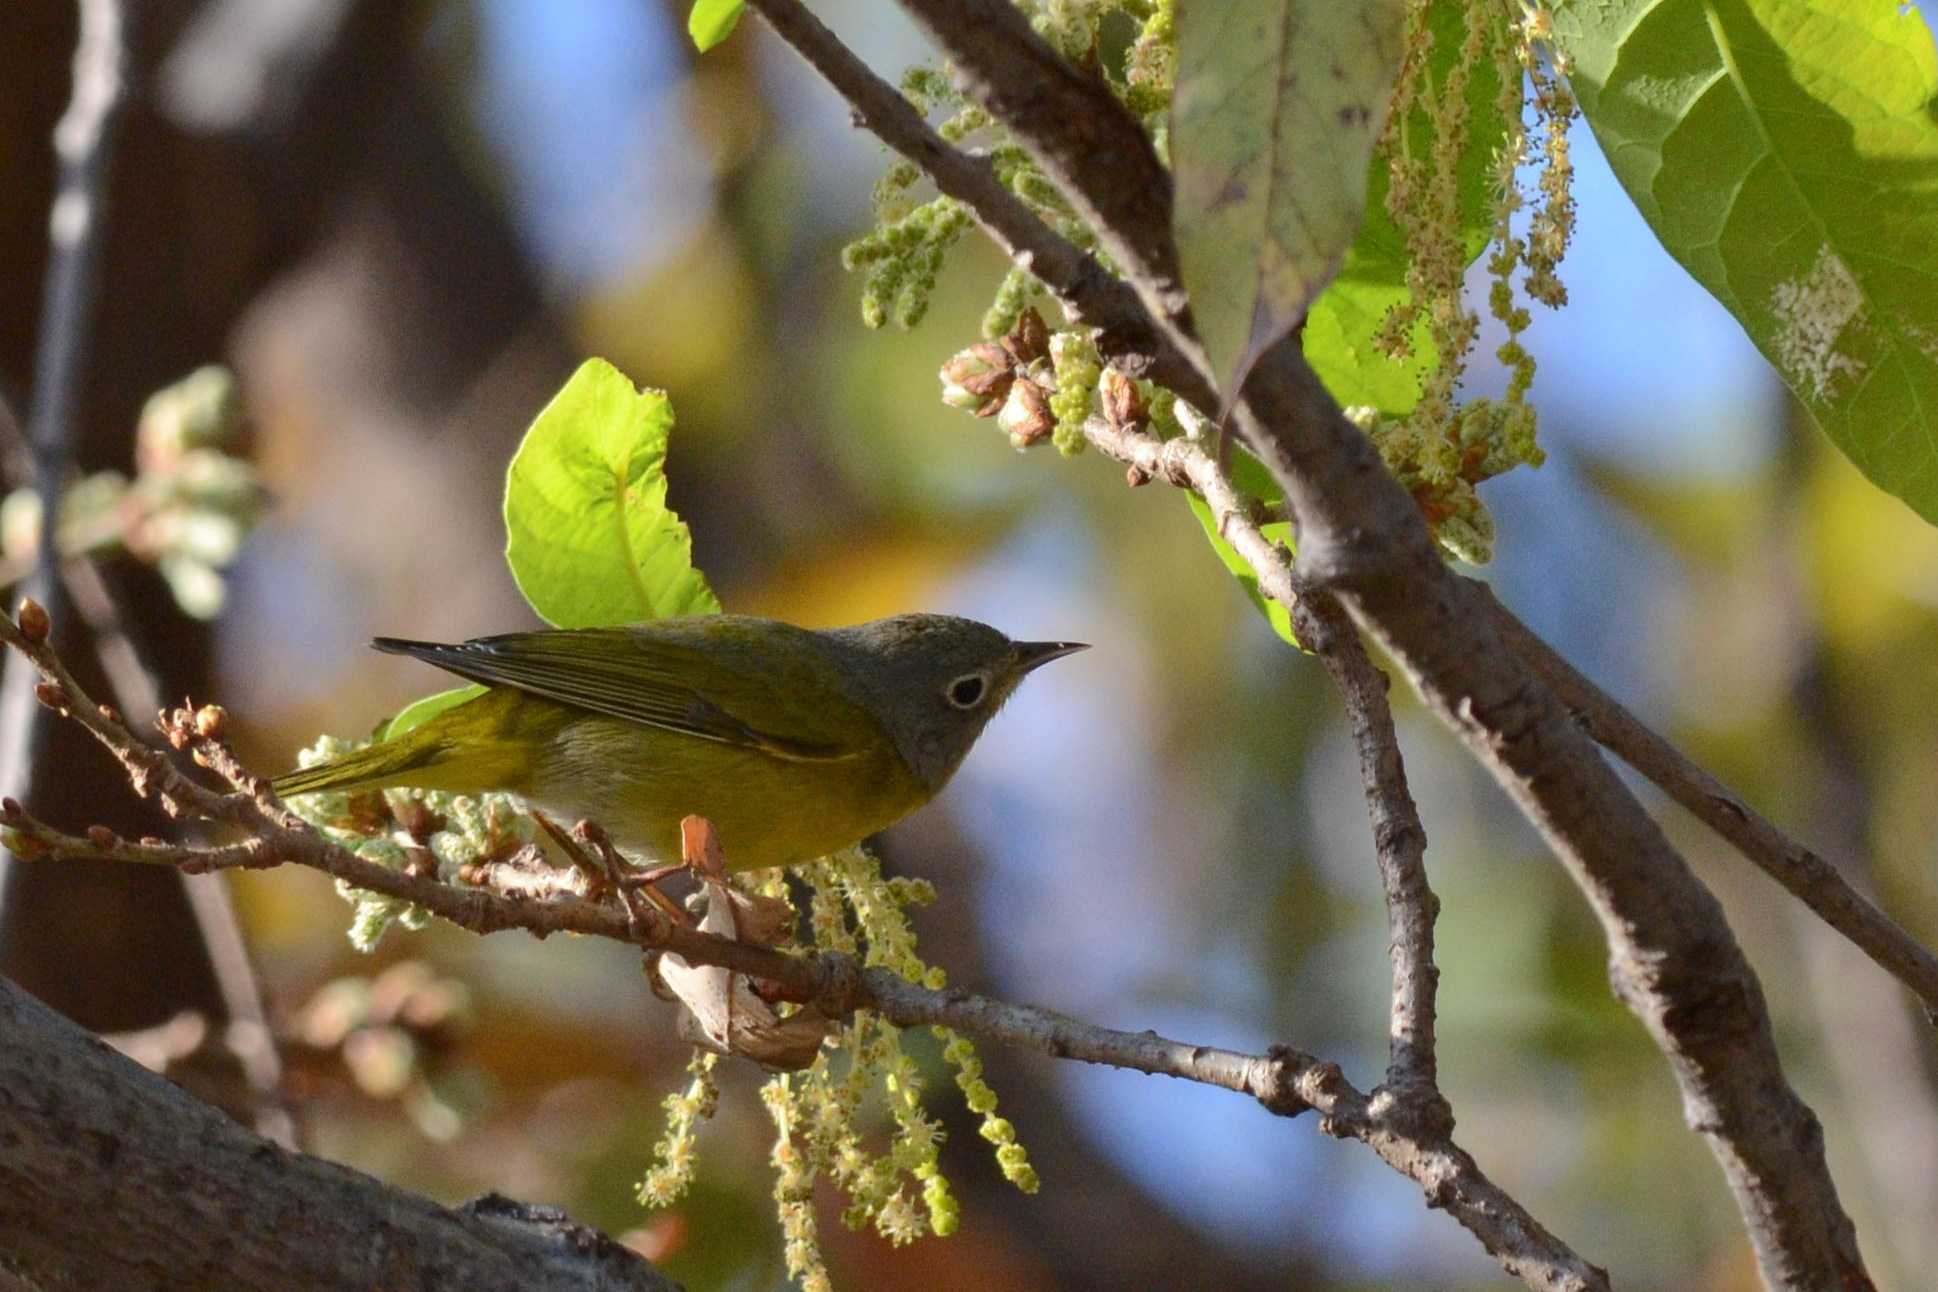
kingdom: Animalia
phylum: Chordata
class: Aves
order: Passeriformes
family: Parulidae
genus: Leiothlypis
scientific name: Leiothlypis ruficapilla
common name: Nashville warbler
